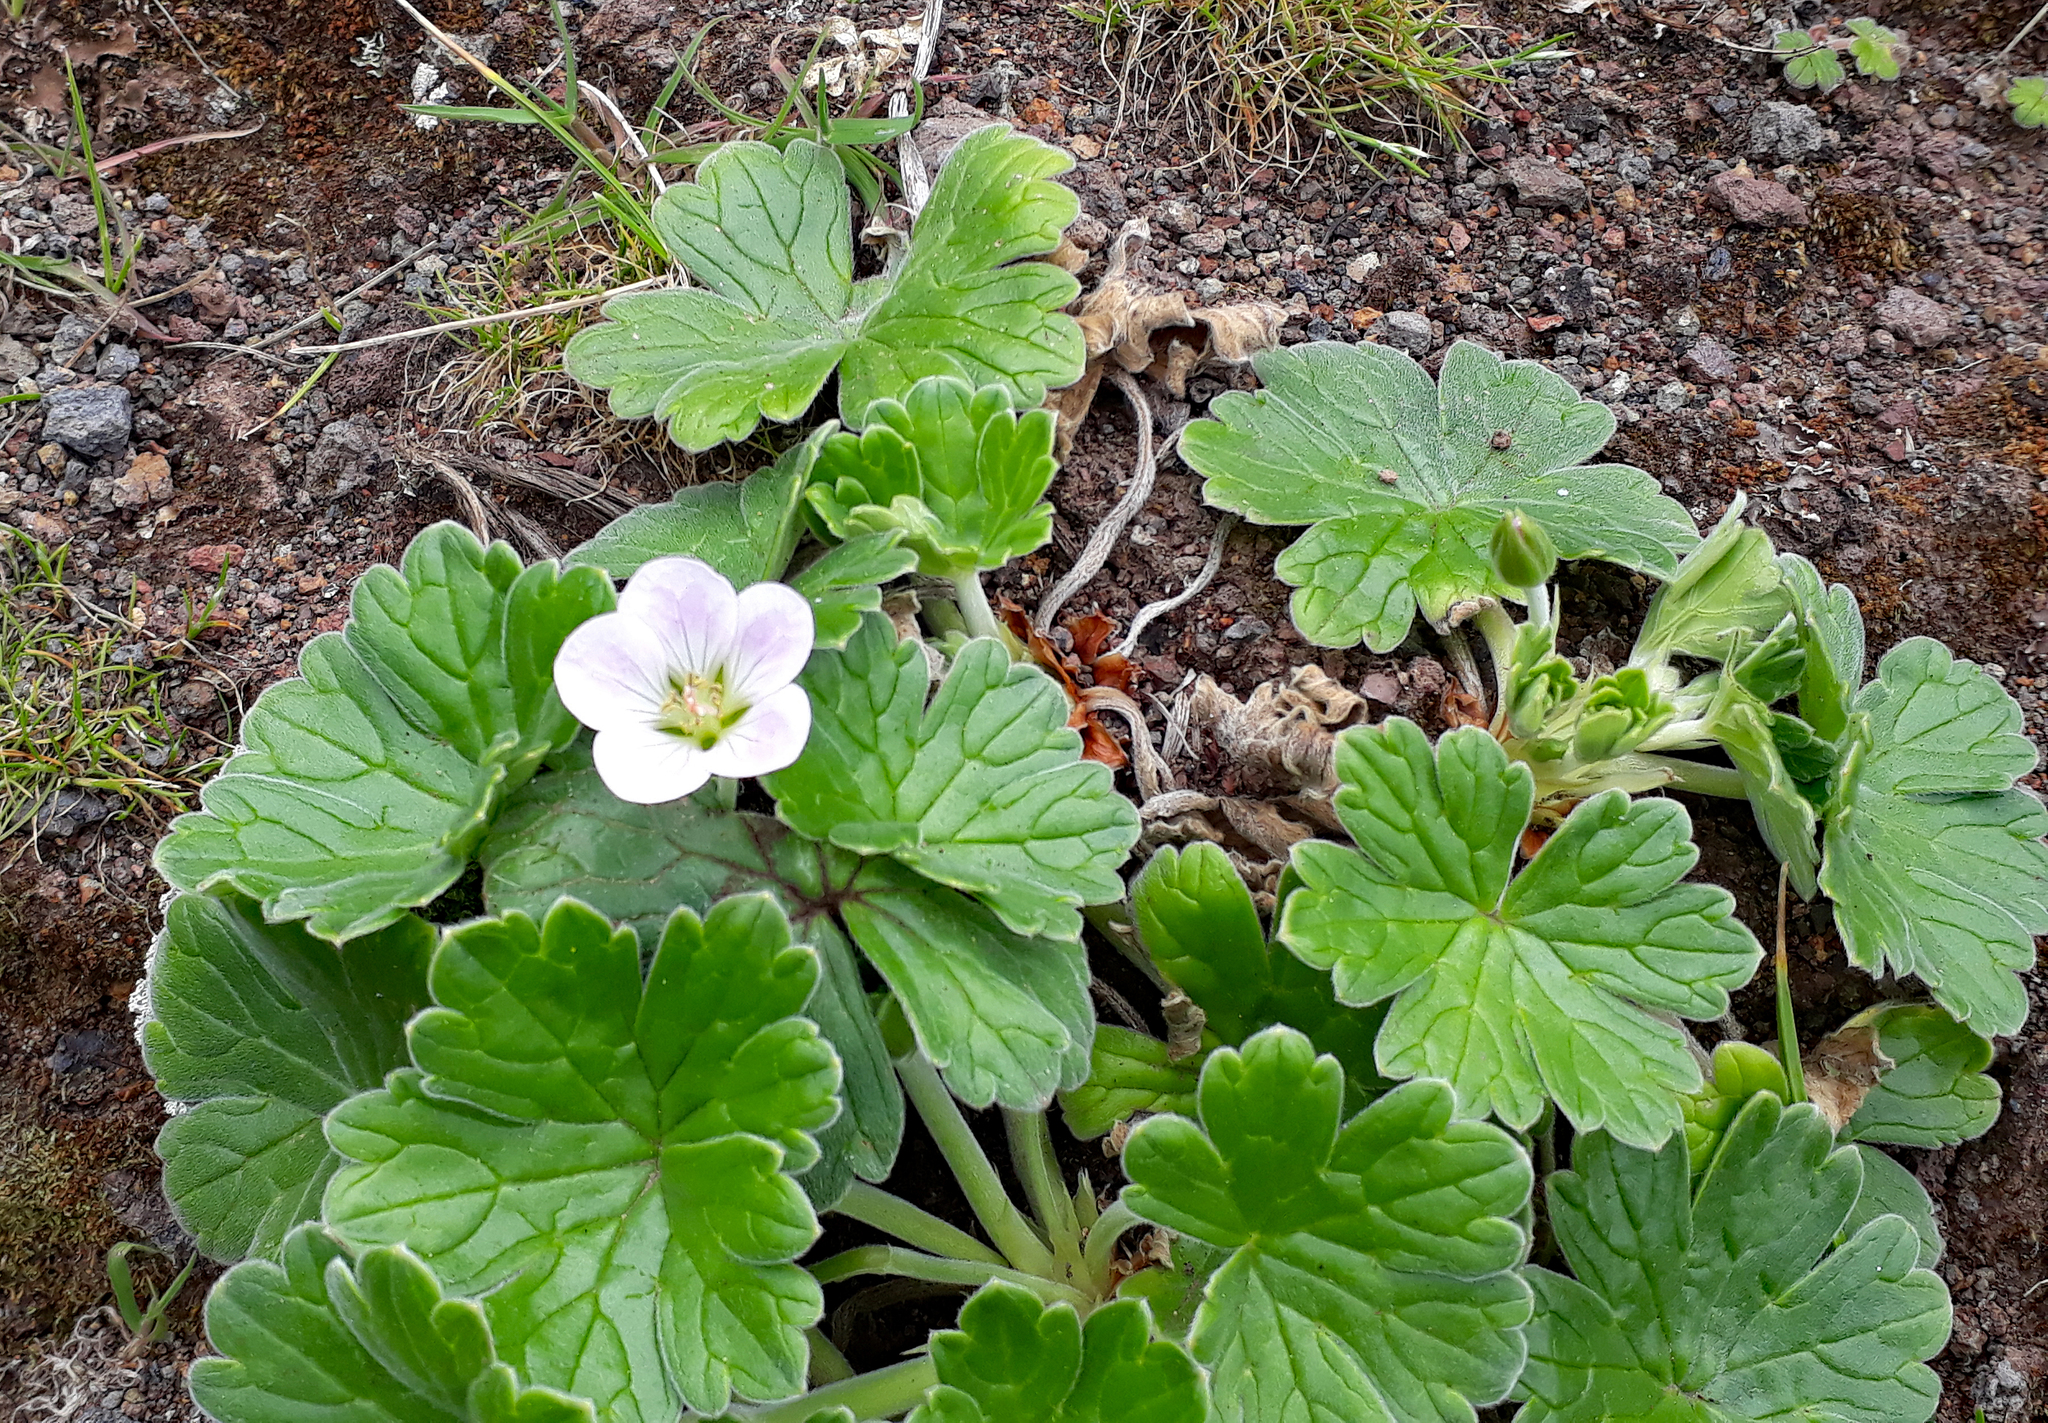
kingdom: Plantae
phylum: Tracheophyta
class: Magnoliopsida
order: Geraniales
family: Geraniaceae
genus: Geranium
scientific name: Geranium traversii
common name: Cranesbill
